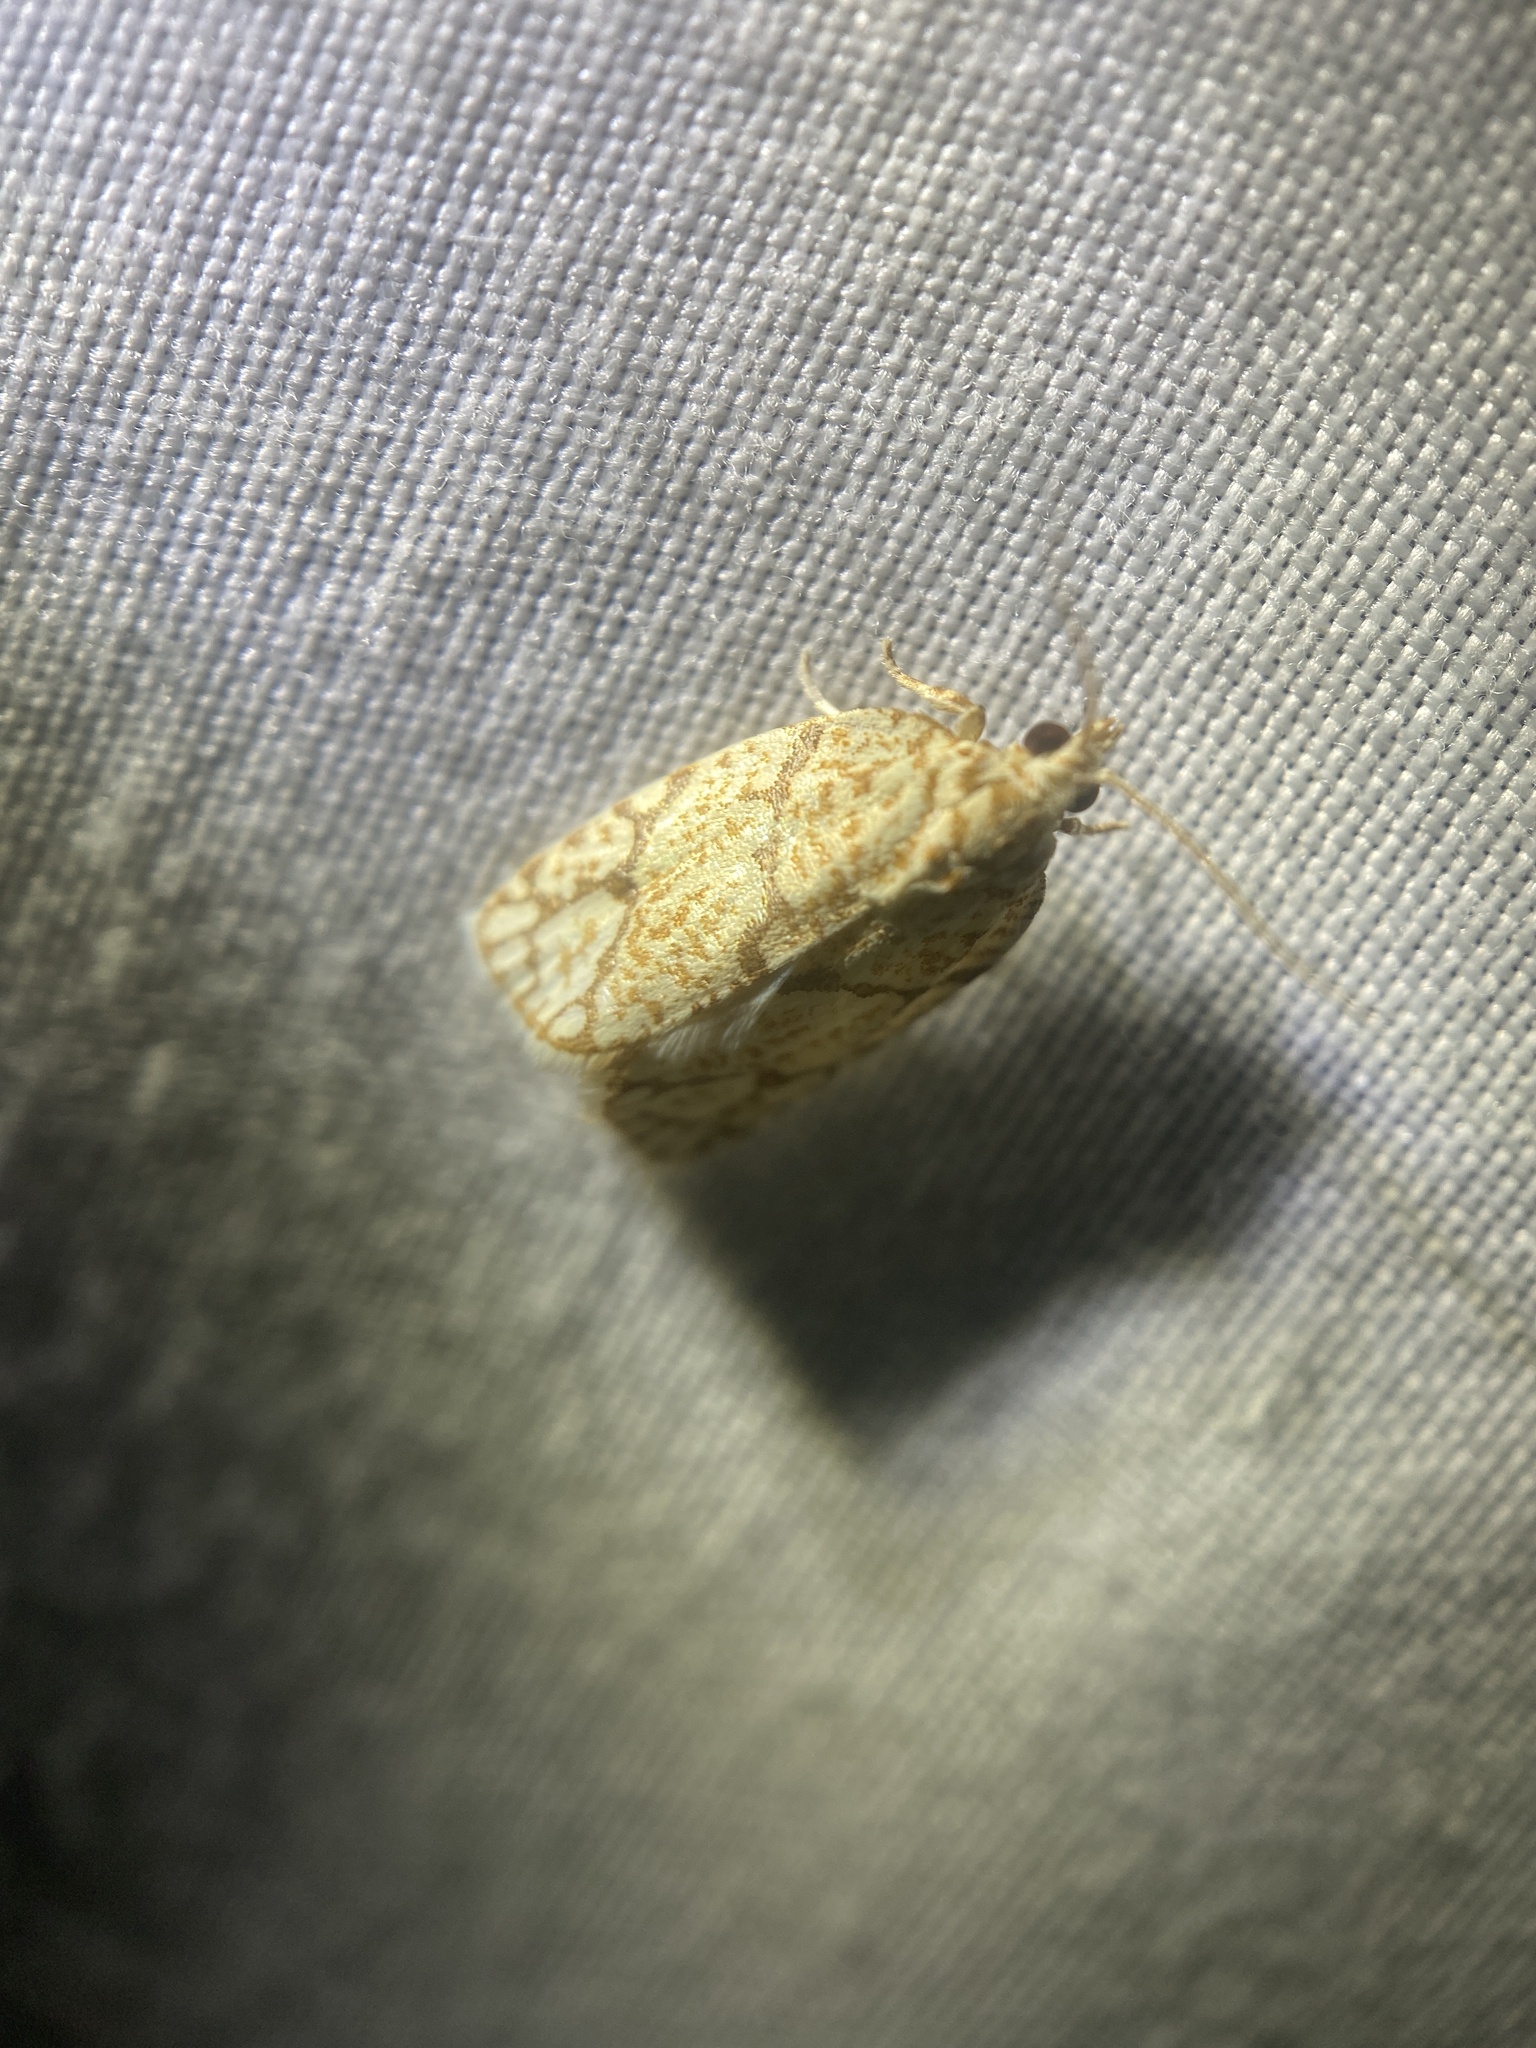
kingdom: Animalia
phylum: Arthropoda
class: Insecta
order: Lepidoptera
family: Tortricidae
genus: Argyrotaenia
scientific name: Argyrotaenia quercifoliana
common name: Yellow-winged oak leafroller moth
